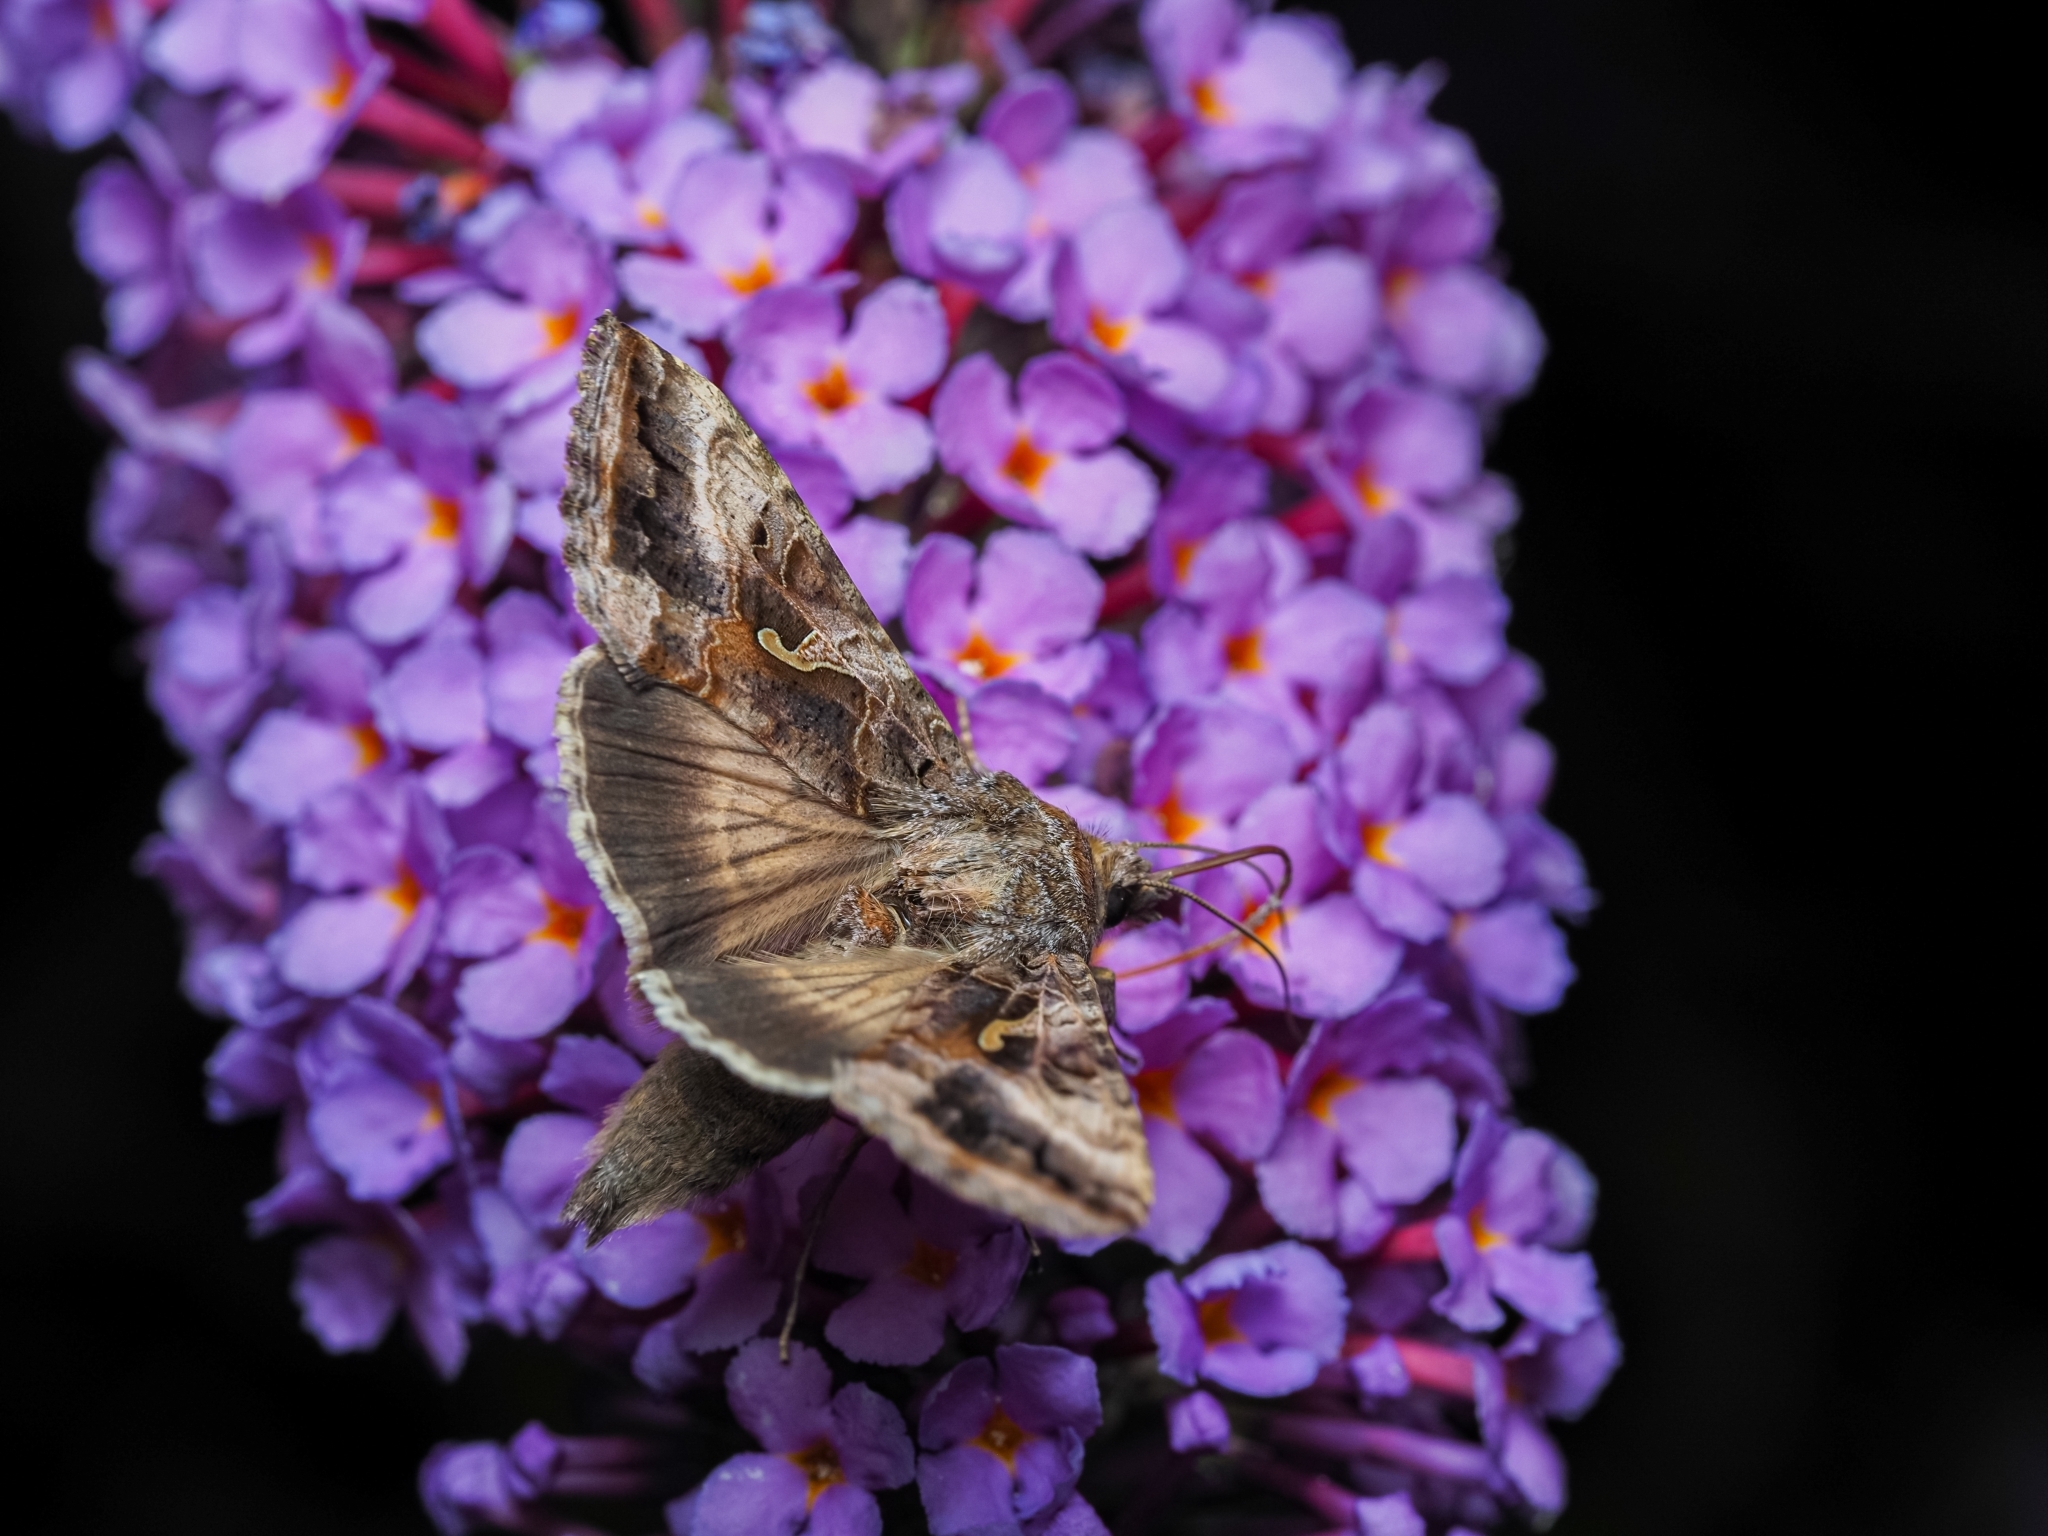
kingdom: Animalia
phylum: Arthropoda
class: Insecta
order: Lepidoptera
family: Noctuidae
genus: Autographa
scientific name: Autographa gamma
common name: Silver y
